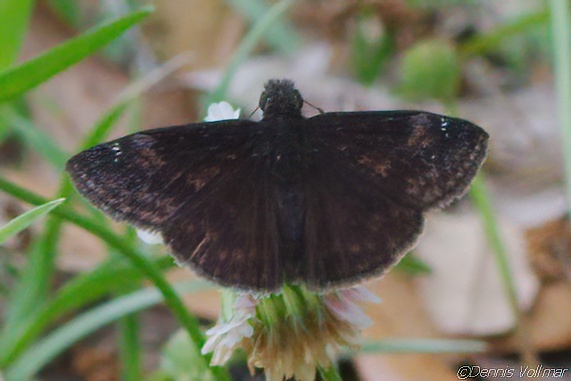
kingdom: Animalia
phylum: Arthropoda
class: Insecta
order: Lepidoptera
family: Hesperiidae
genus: Erynnis
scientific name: Erynnis zarucco
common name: Zarucco duskywing
